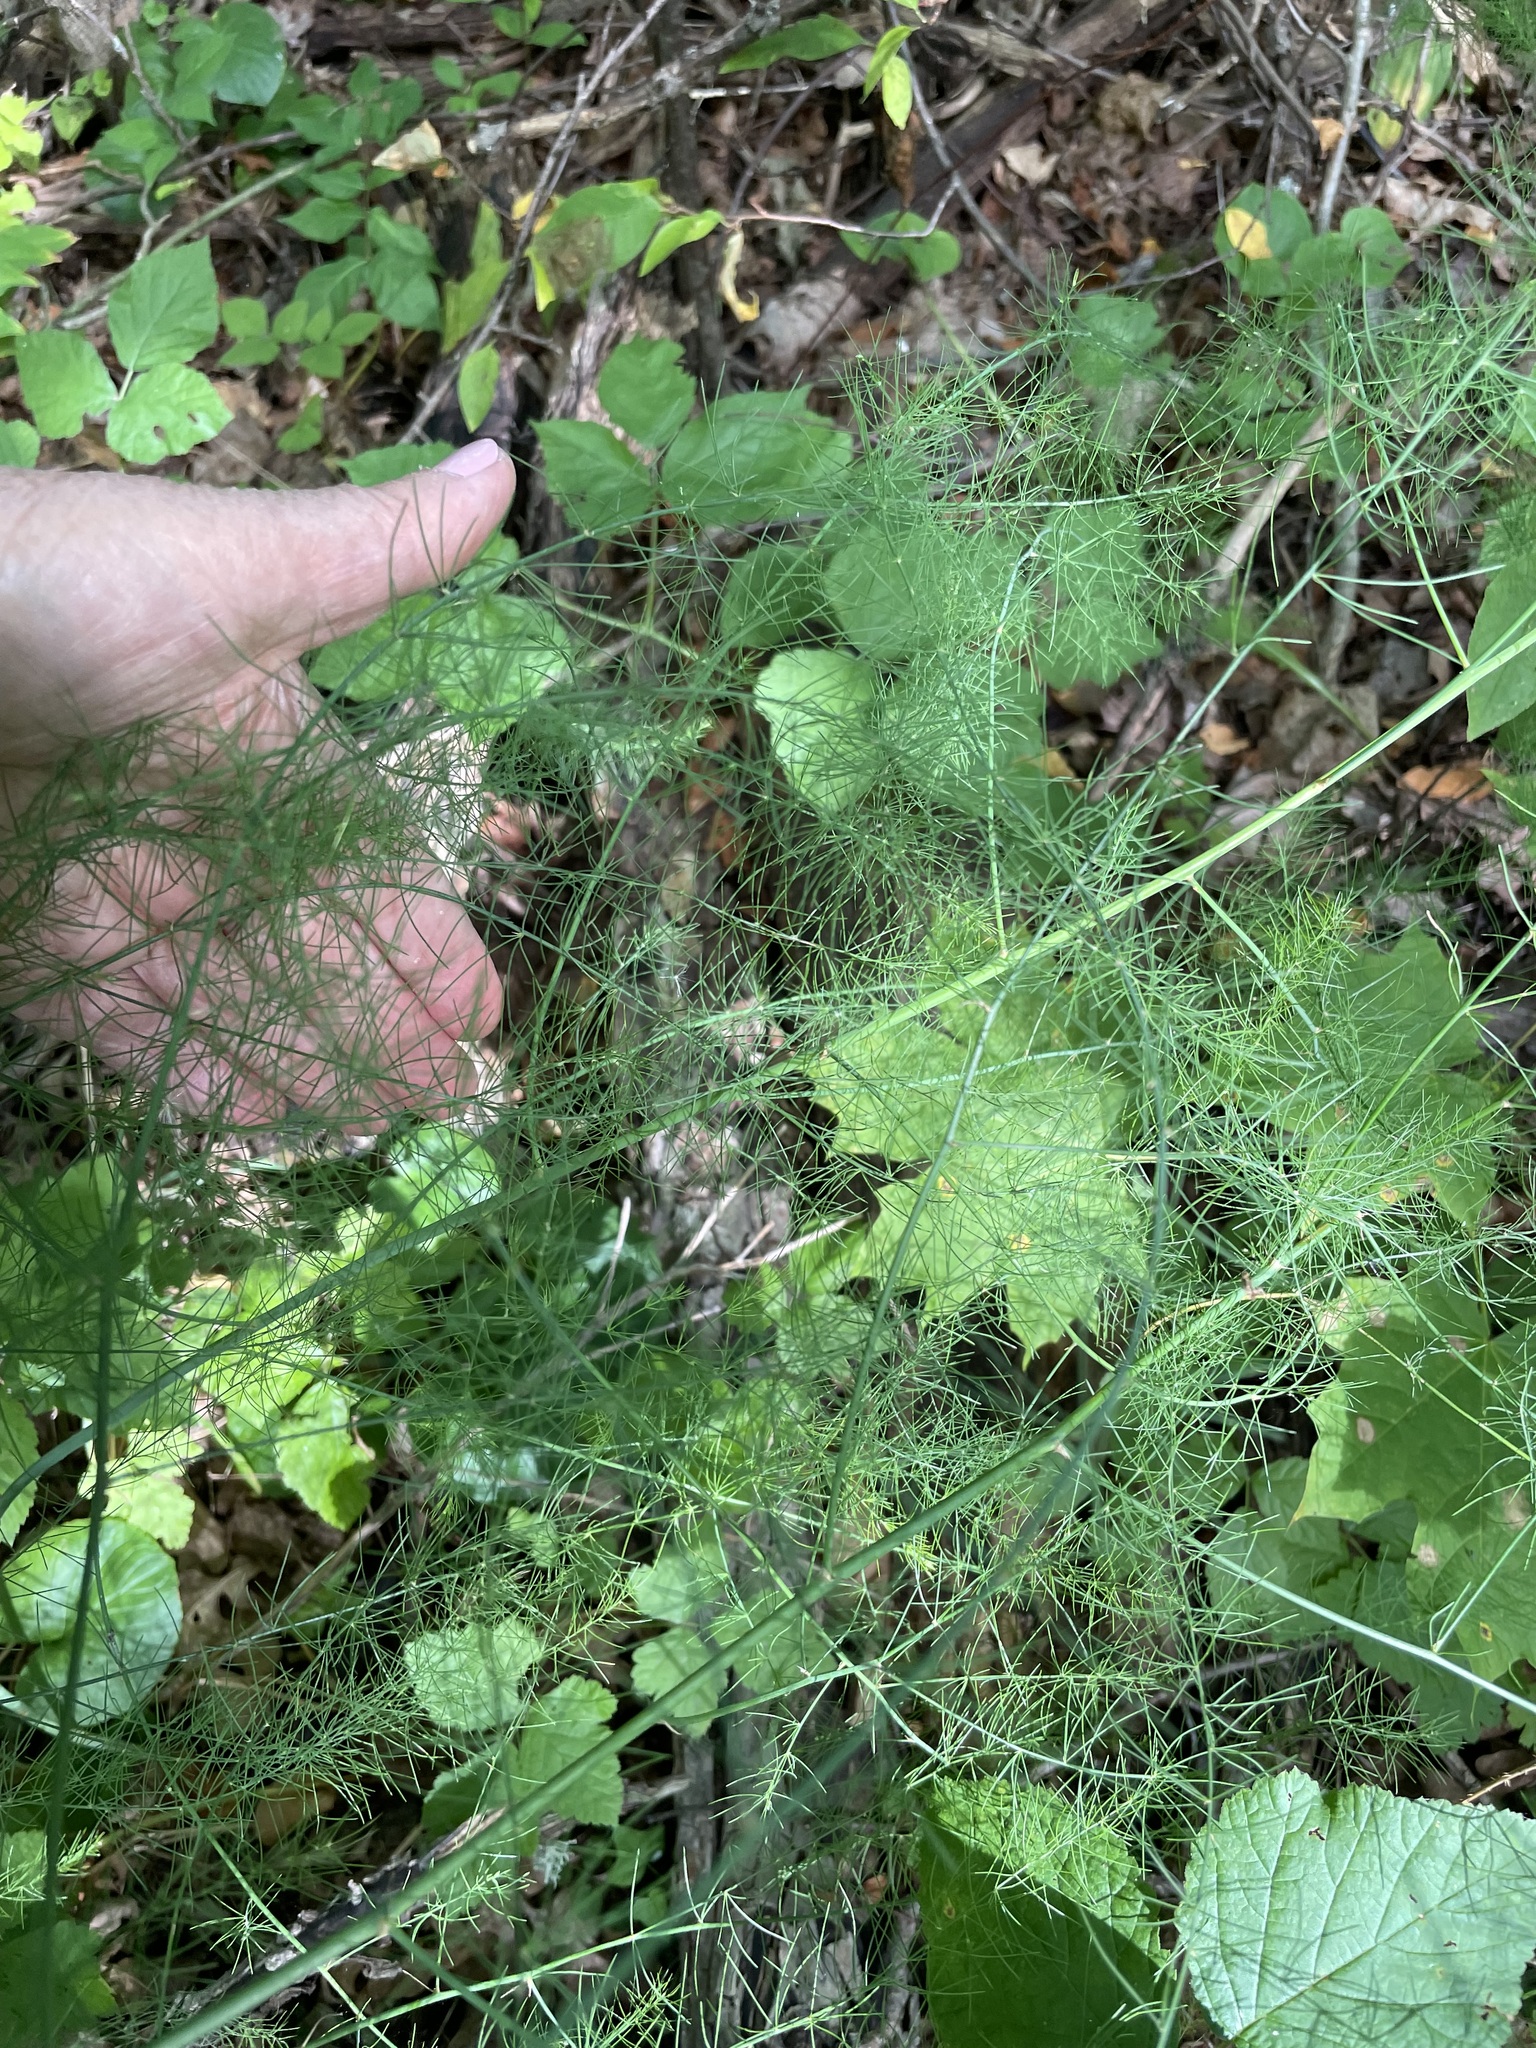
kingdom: Plantae
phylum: Tracheophyta
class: Liliopsida
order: Asparagales
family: Asparagaceae
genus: Asparagus
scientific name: Asparagus officinalis
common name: Garden asparagus
